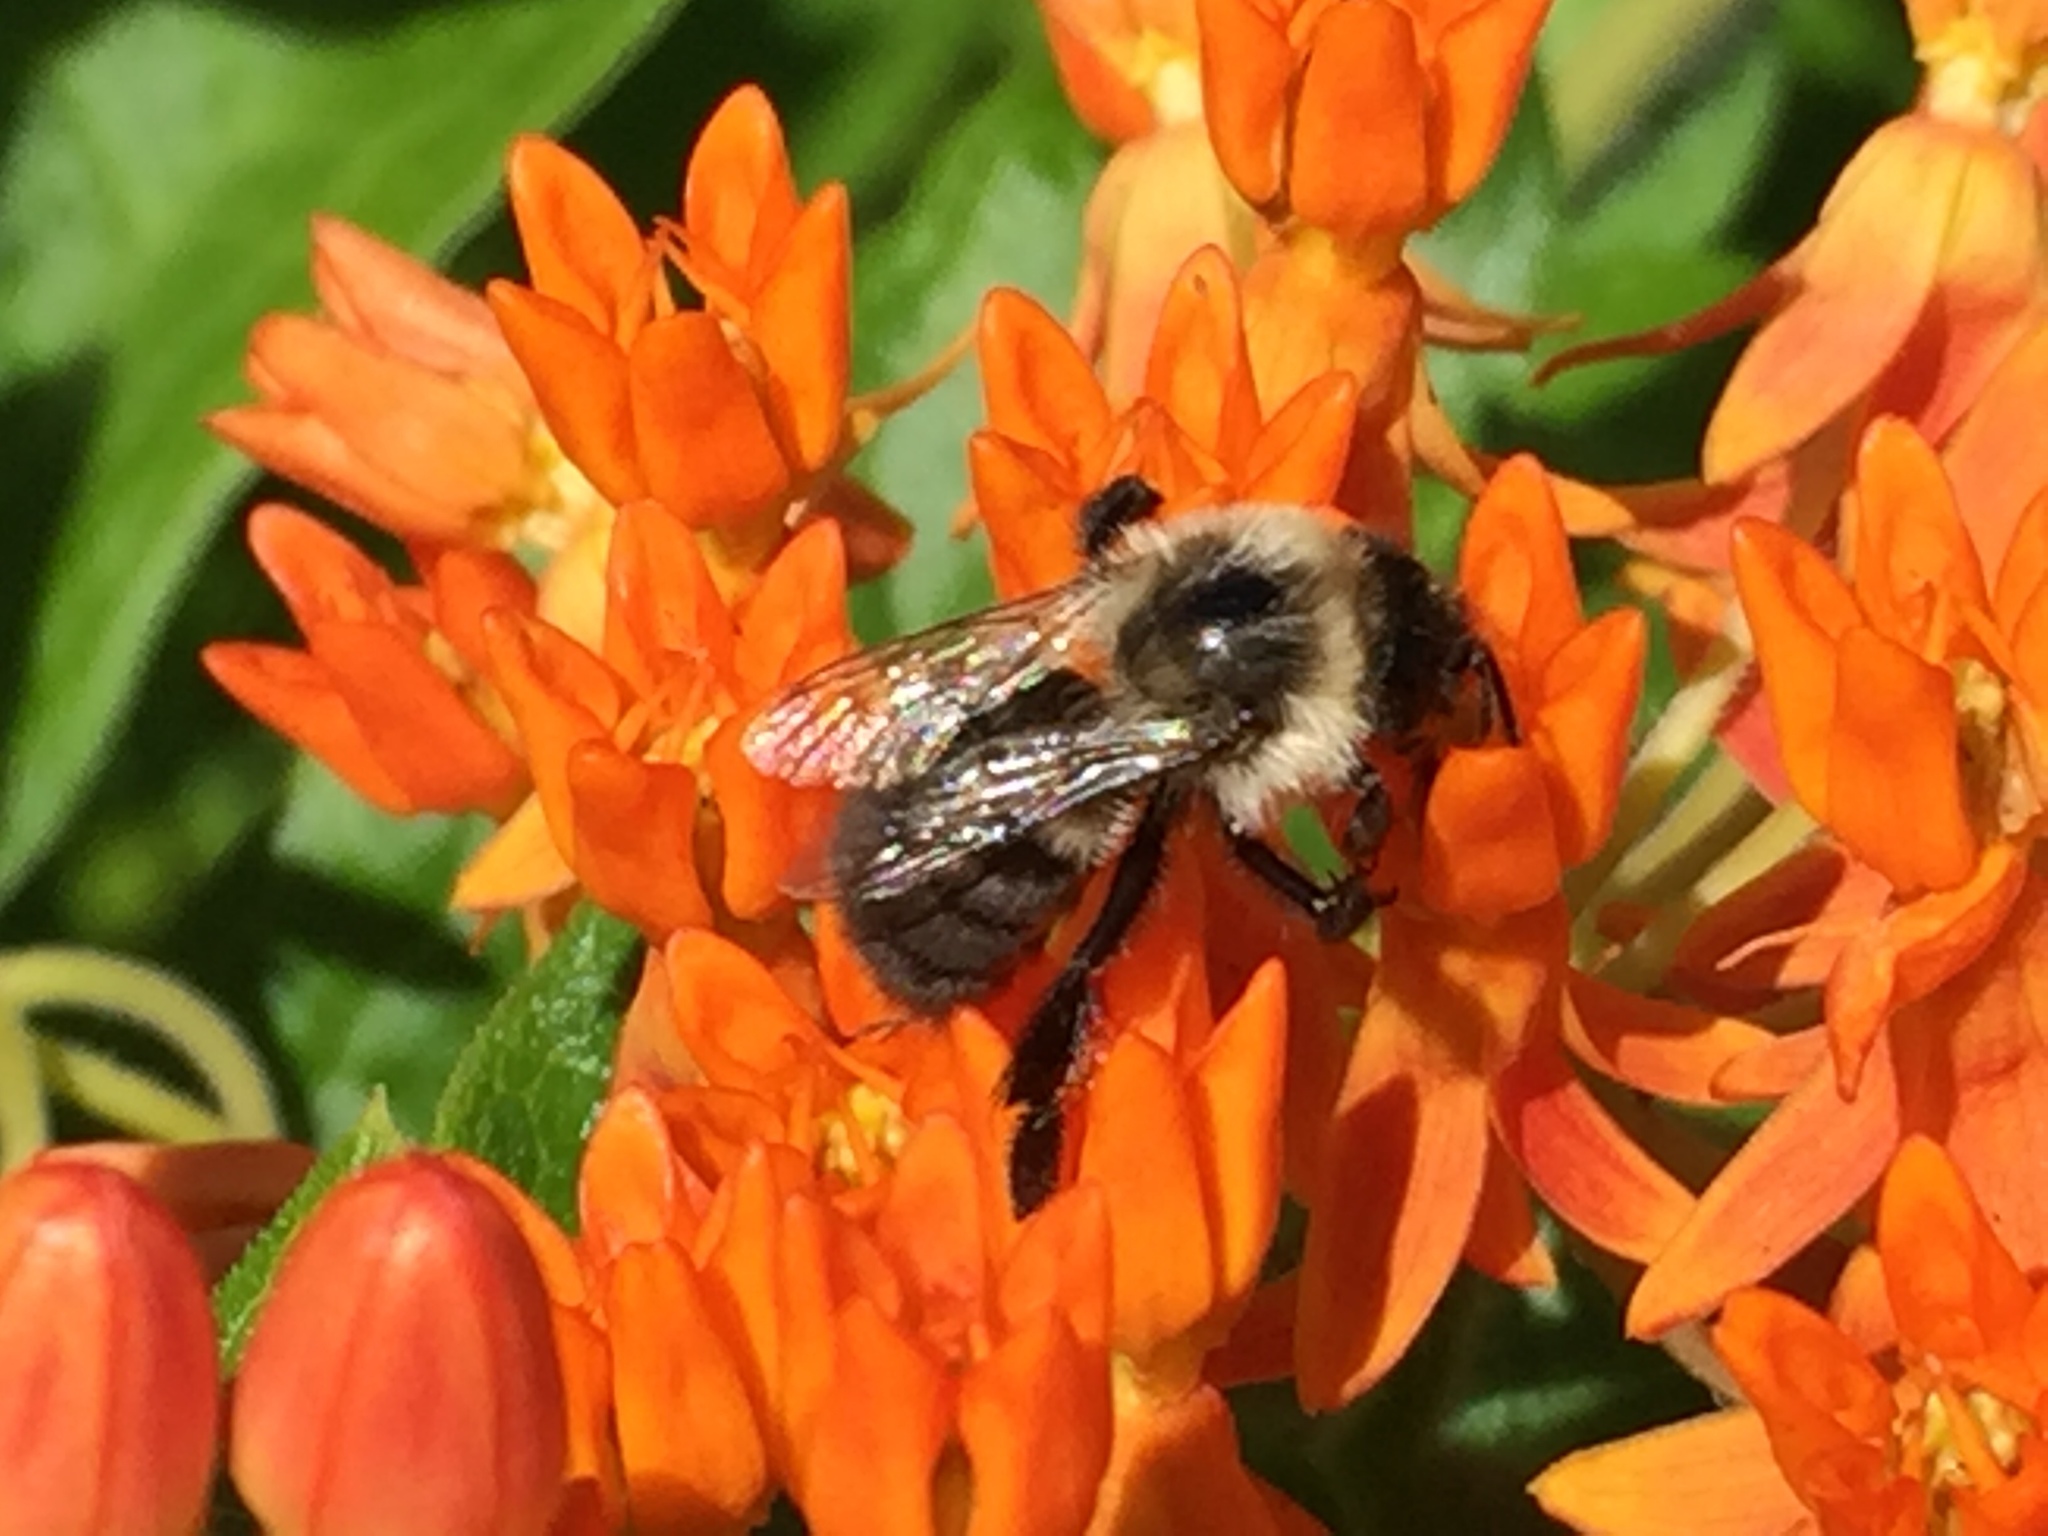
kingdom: Animalia
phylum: Arthropoda
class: Insecta
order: Hymenoptera
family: Apidae
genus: Bombus
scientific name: Bombus impatiens
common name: Common eastern bumble bee
